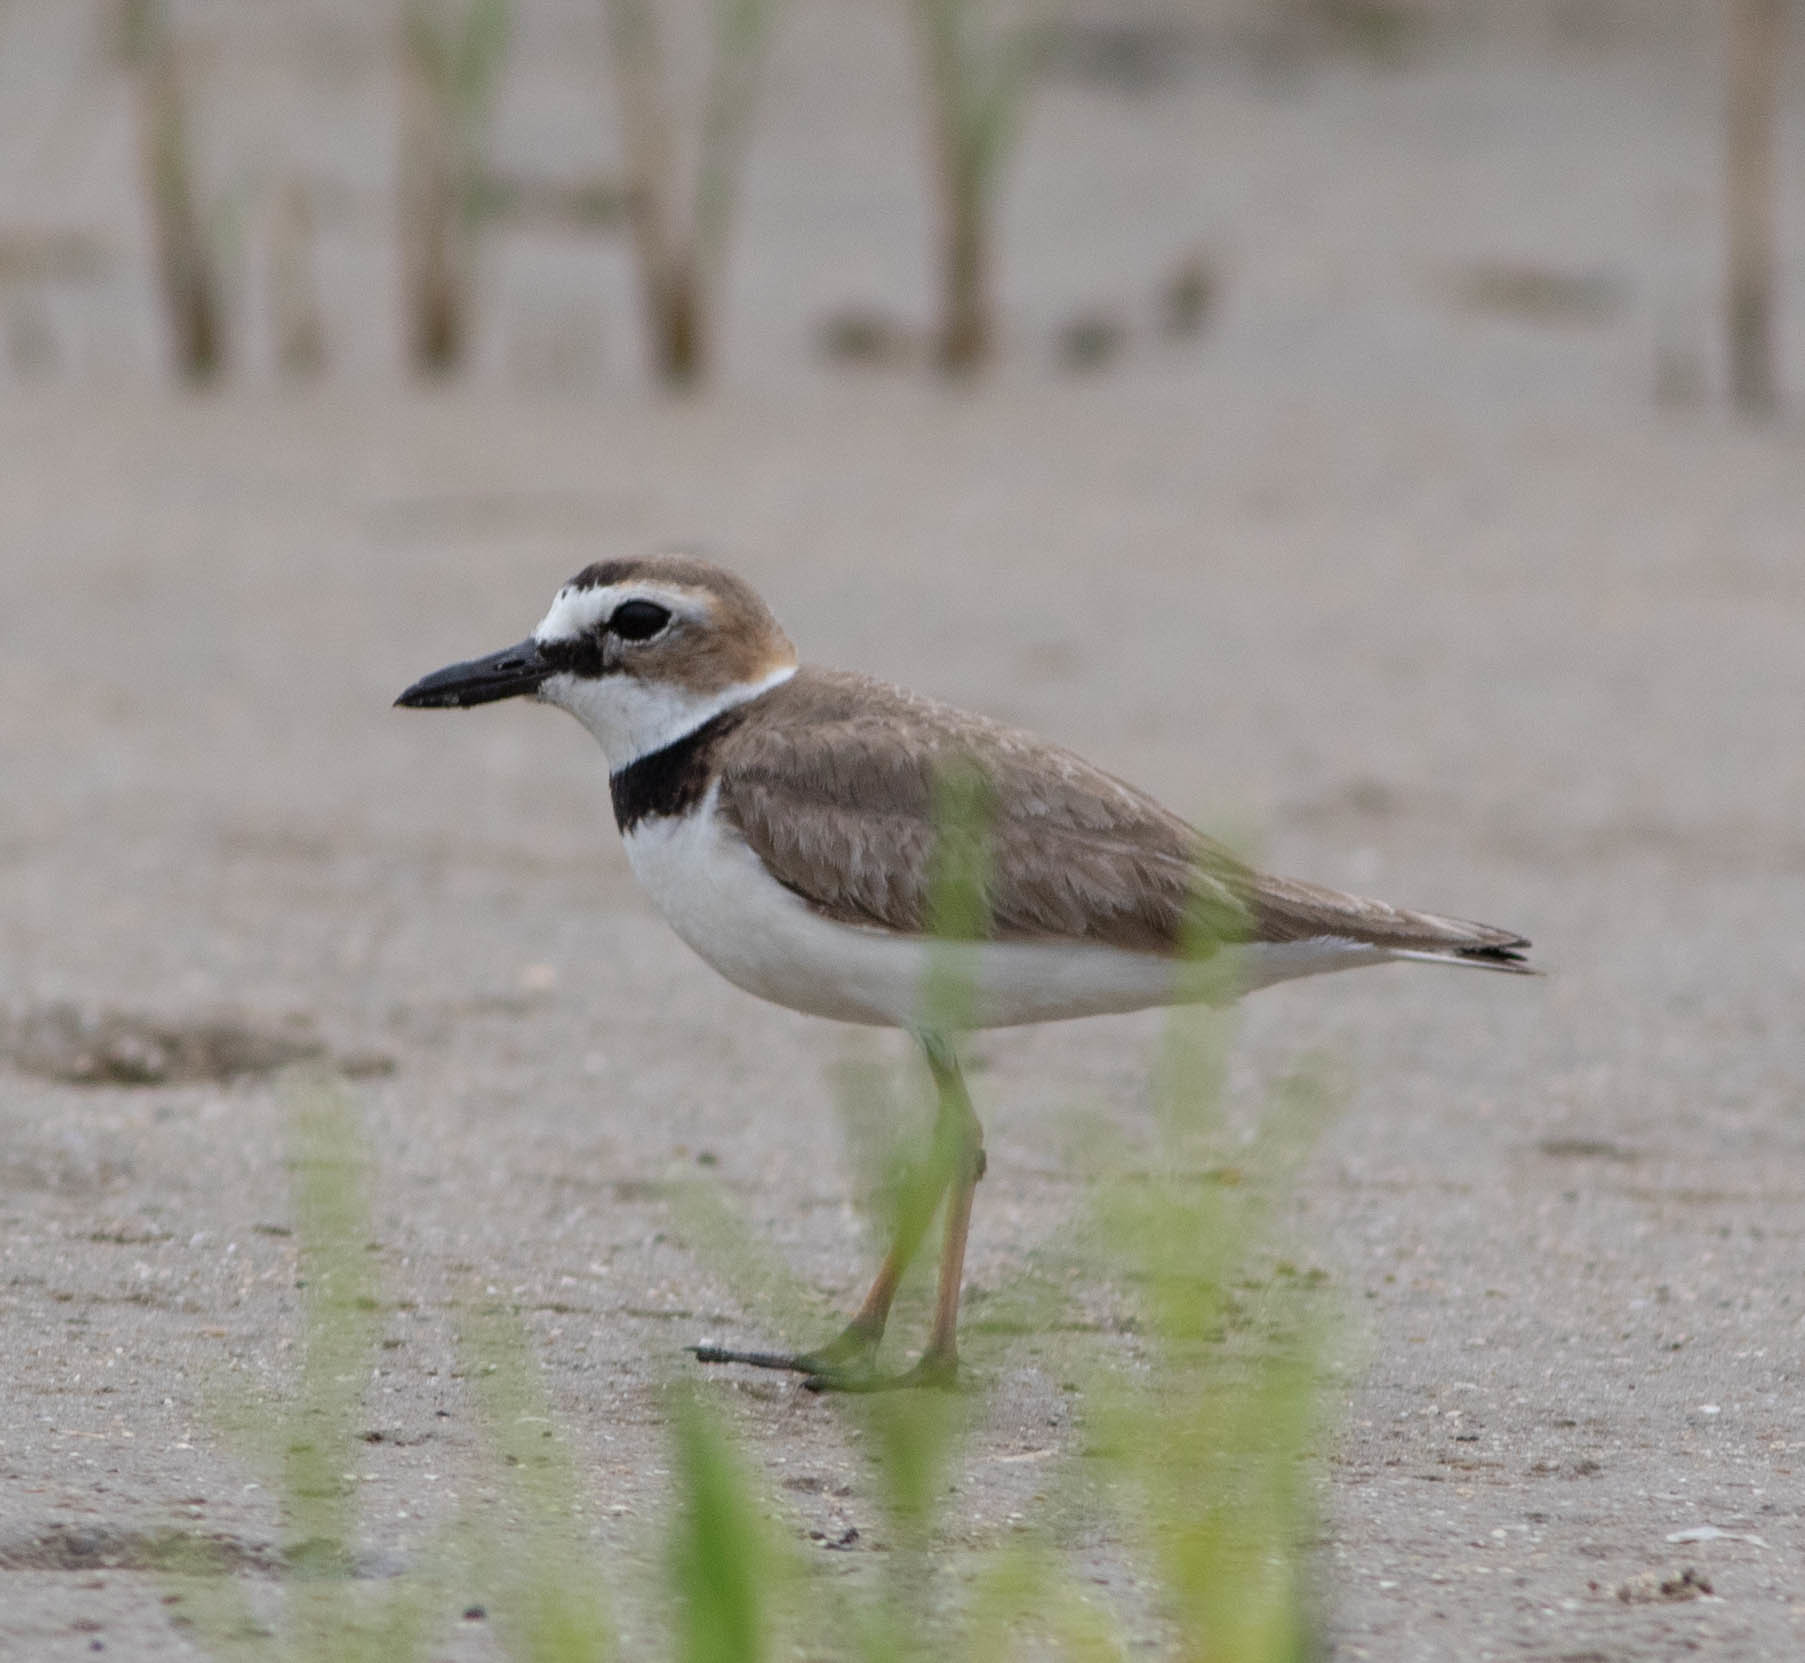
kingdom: Animalia
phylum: Chordata
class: Aves
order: Charadriiformes
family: Charadriidae
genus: Anarhynchus
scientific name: Anarhynchus
